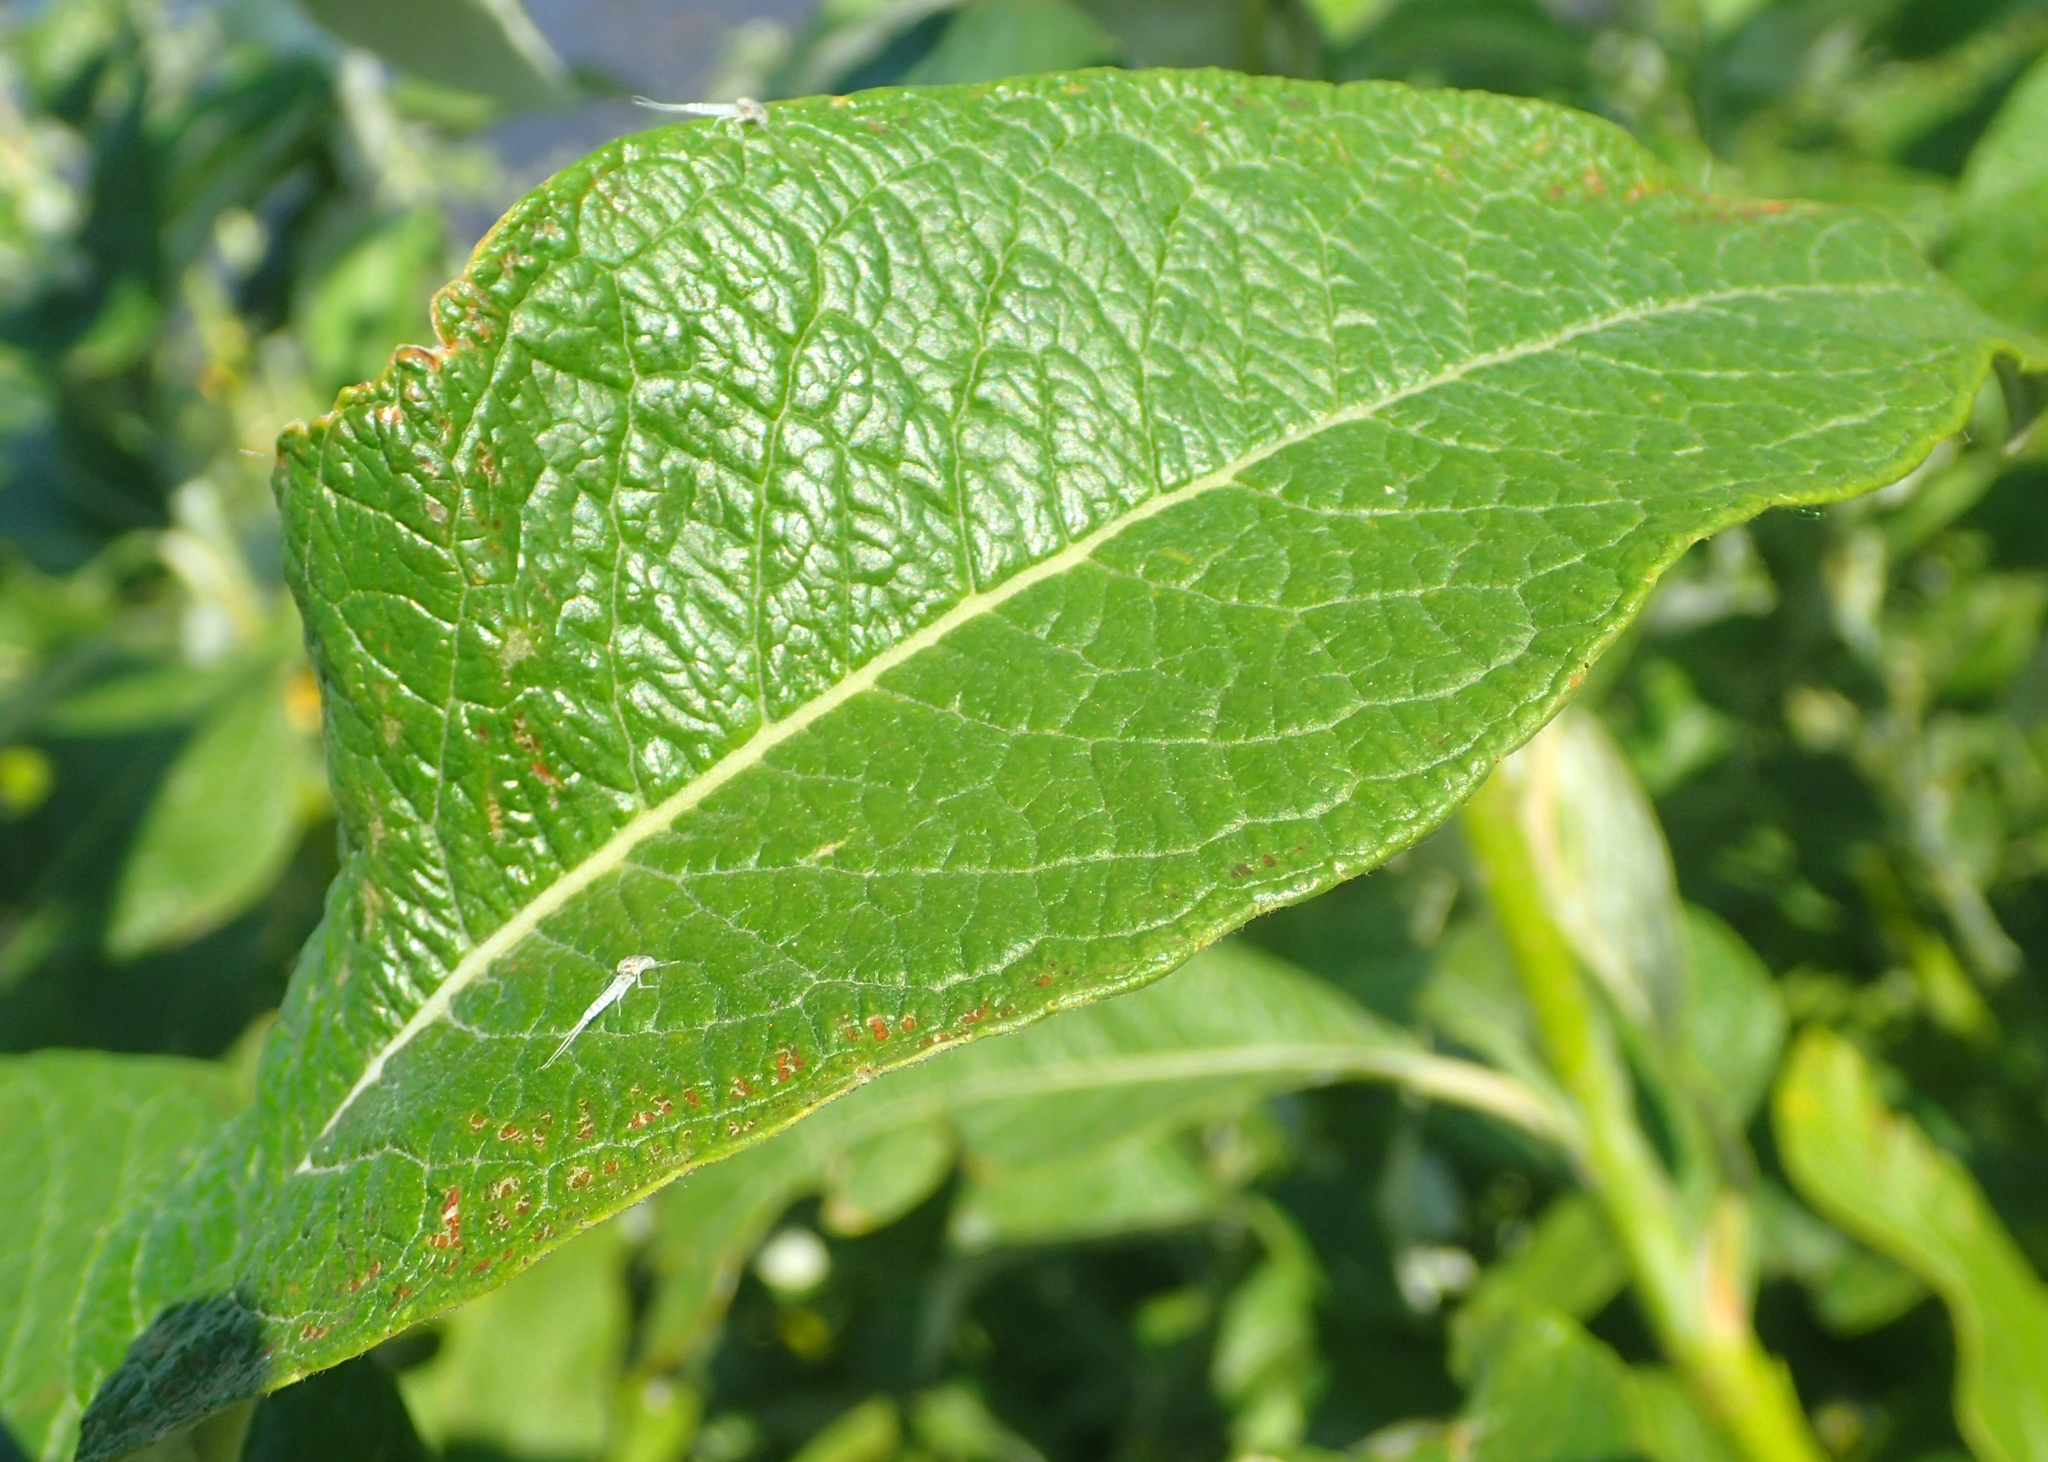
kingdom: Plantae
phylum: Tracheophyta
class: Magnoliopsida
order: Malpighiales
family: Salicaceae
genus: Salix
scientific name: Salix alaxensis
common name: Feltleaf willow
